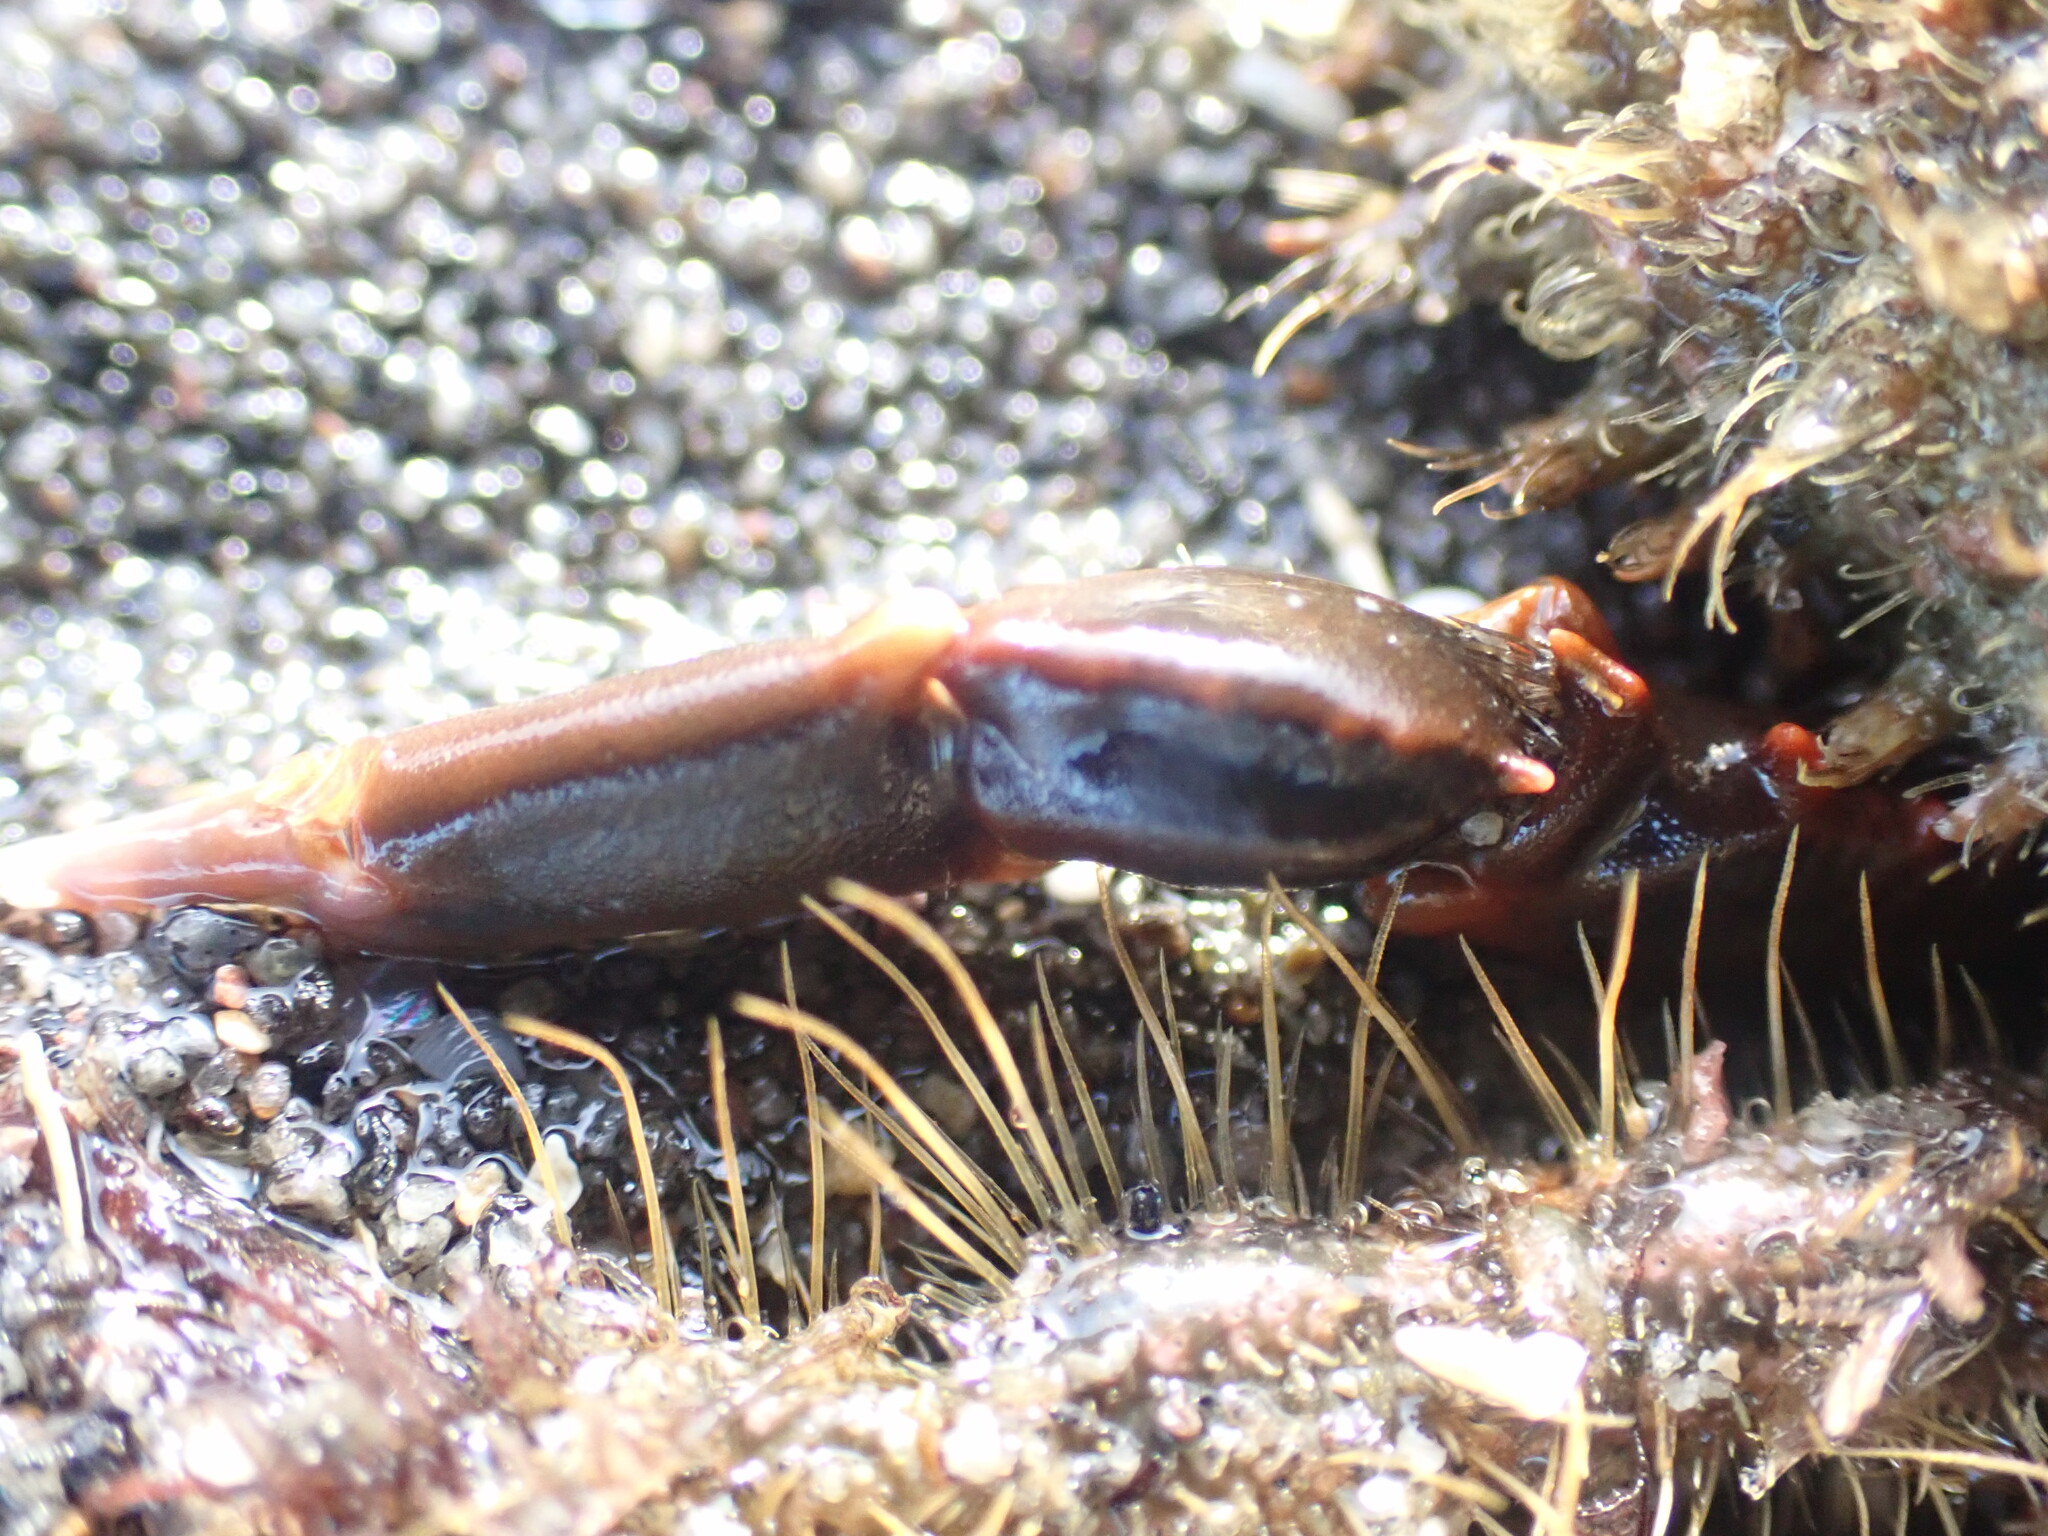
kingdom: Animalia
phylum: Arthropoda
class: Malacostraca
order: Decapoda
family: Majidae
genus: Notomithrax
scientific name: Notomithrax ursus
